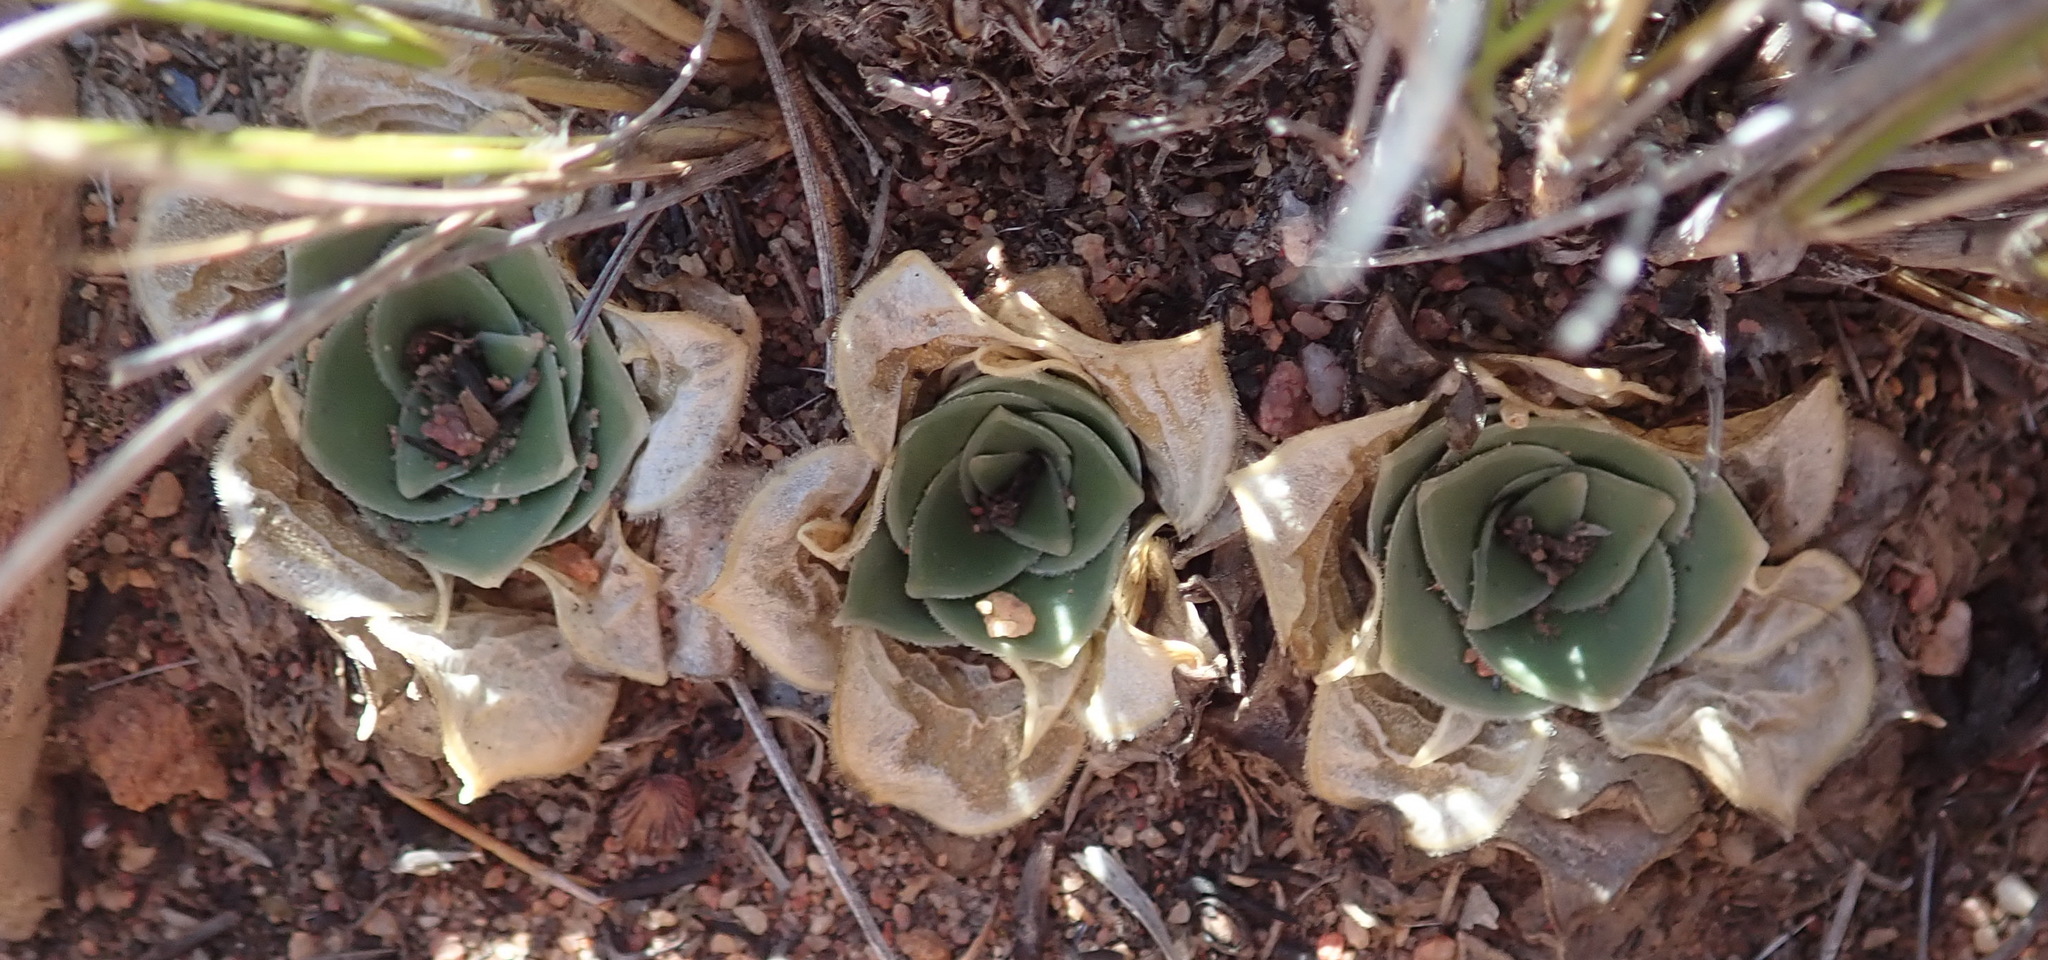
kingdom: Plantae
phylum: Tracheophyta
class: Liliopsida
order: Asparagales
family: Asparagaceae
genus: Drimia
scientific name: Drimia ciliata
